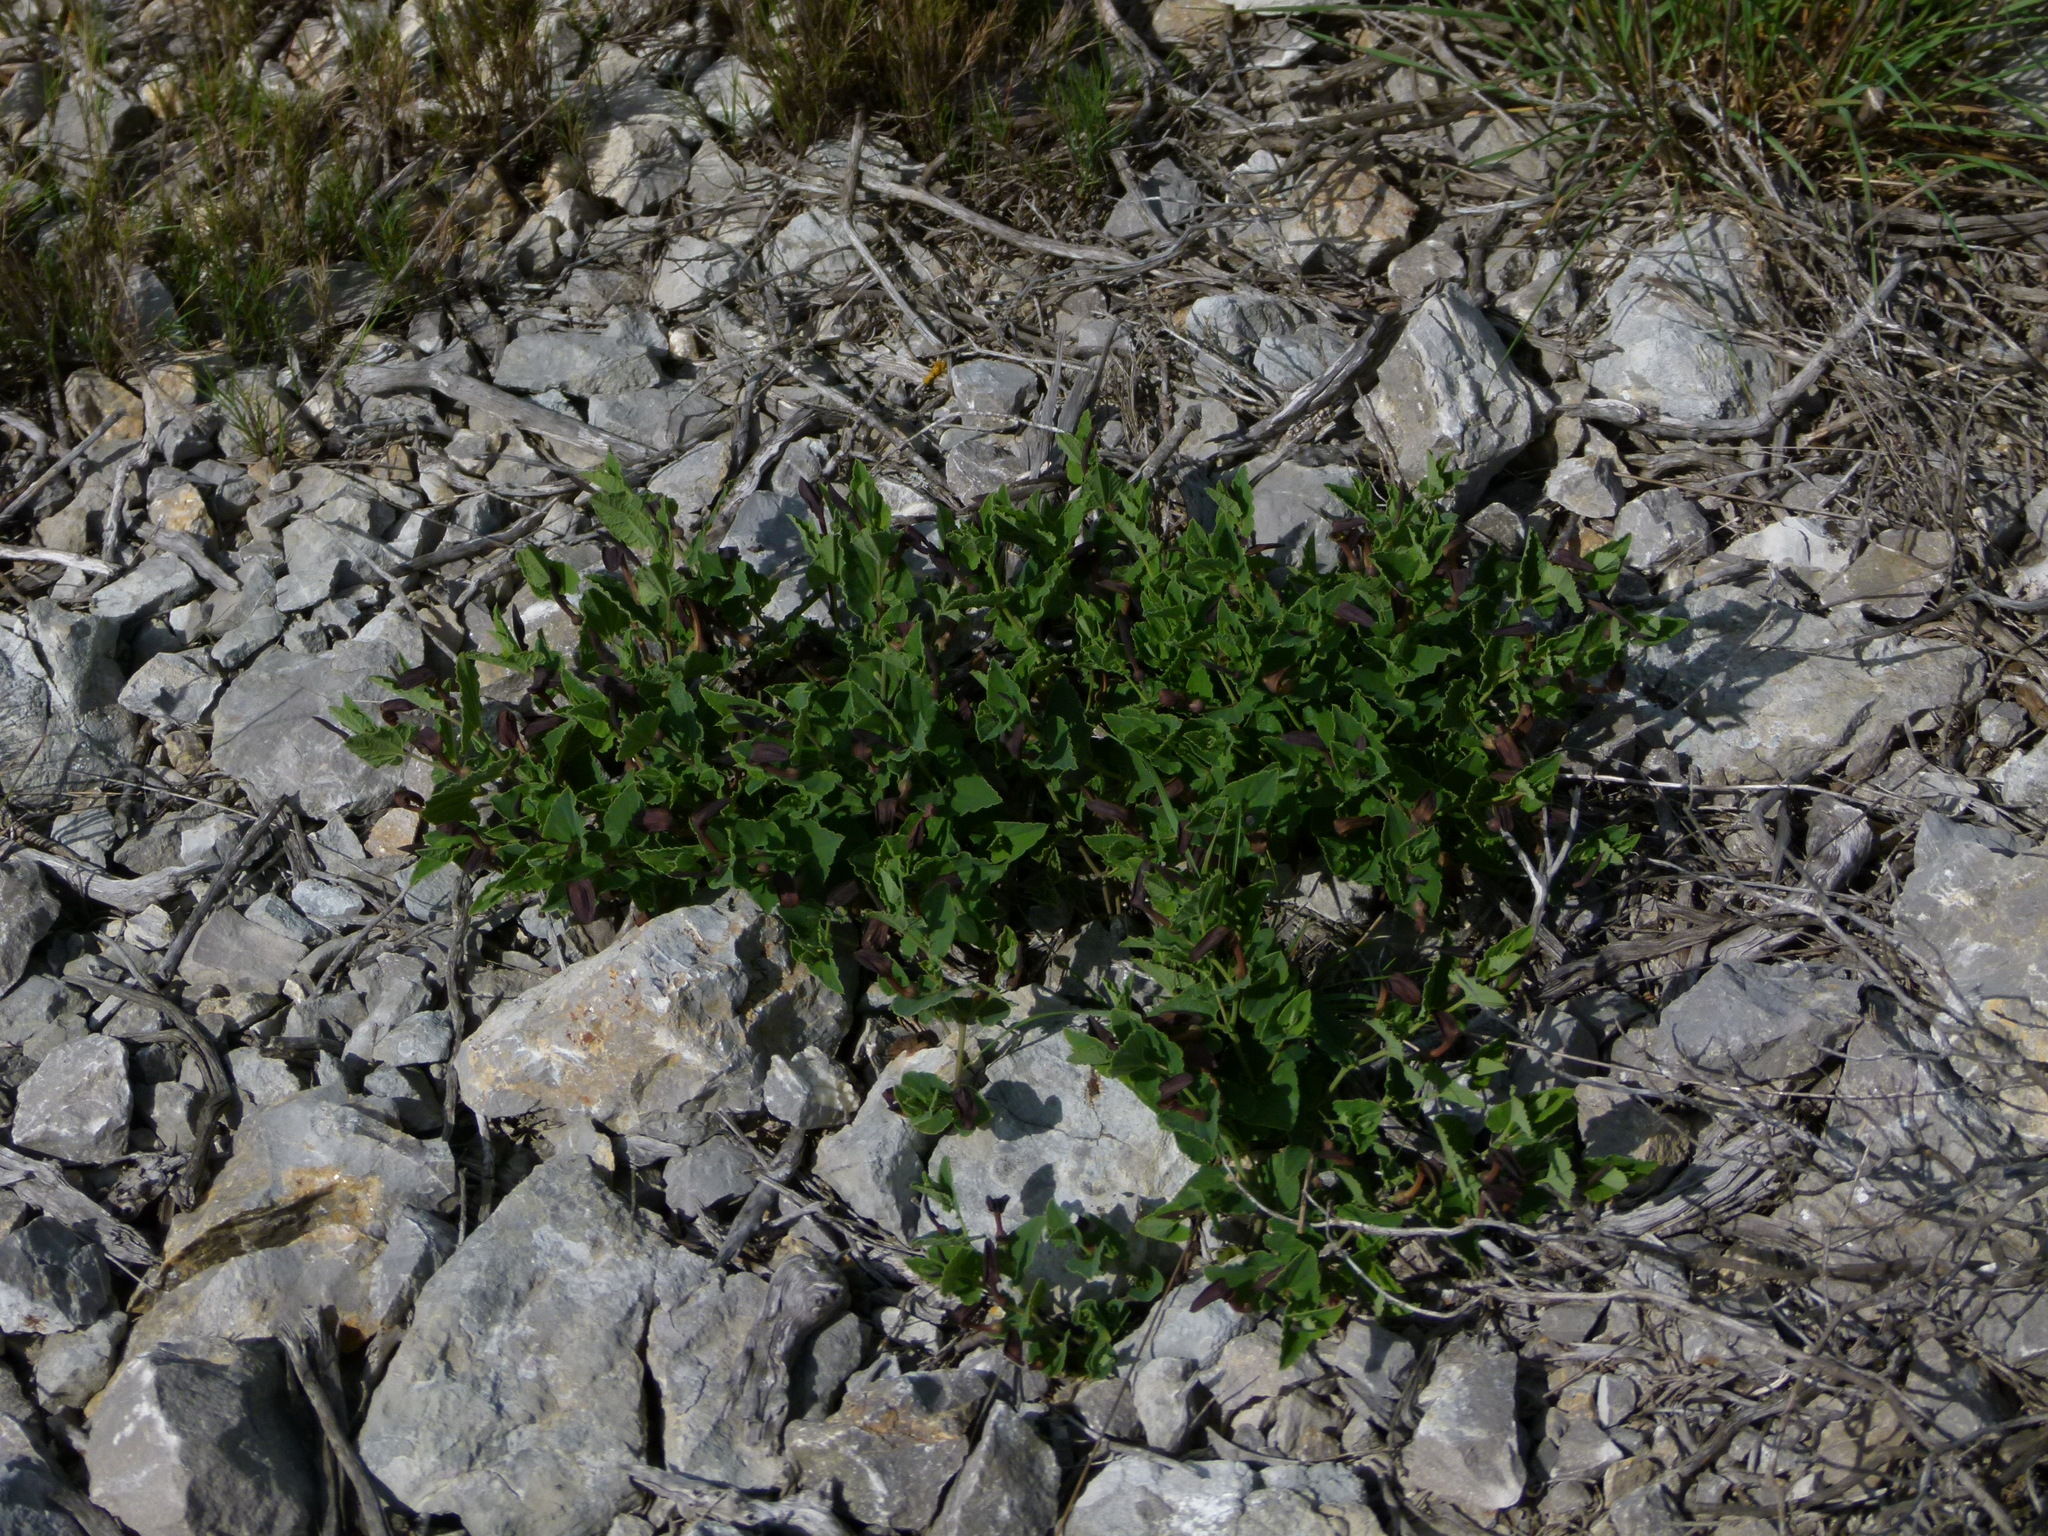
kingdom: Plantae
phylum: Tracheophyta
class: Magnoliopsida
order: Piperales
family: Aristolochiaceae
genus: Aristolochia
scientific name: Aristolochia pistolochia
